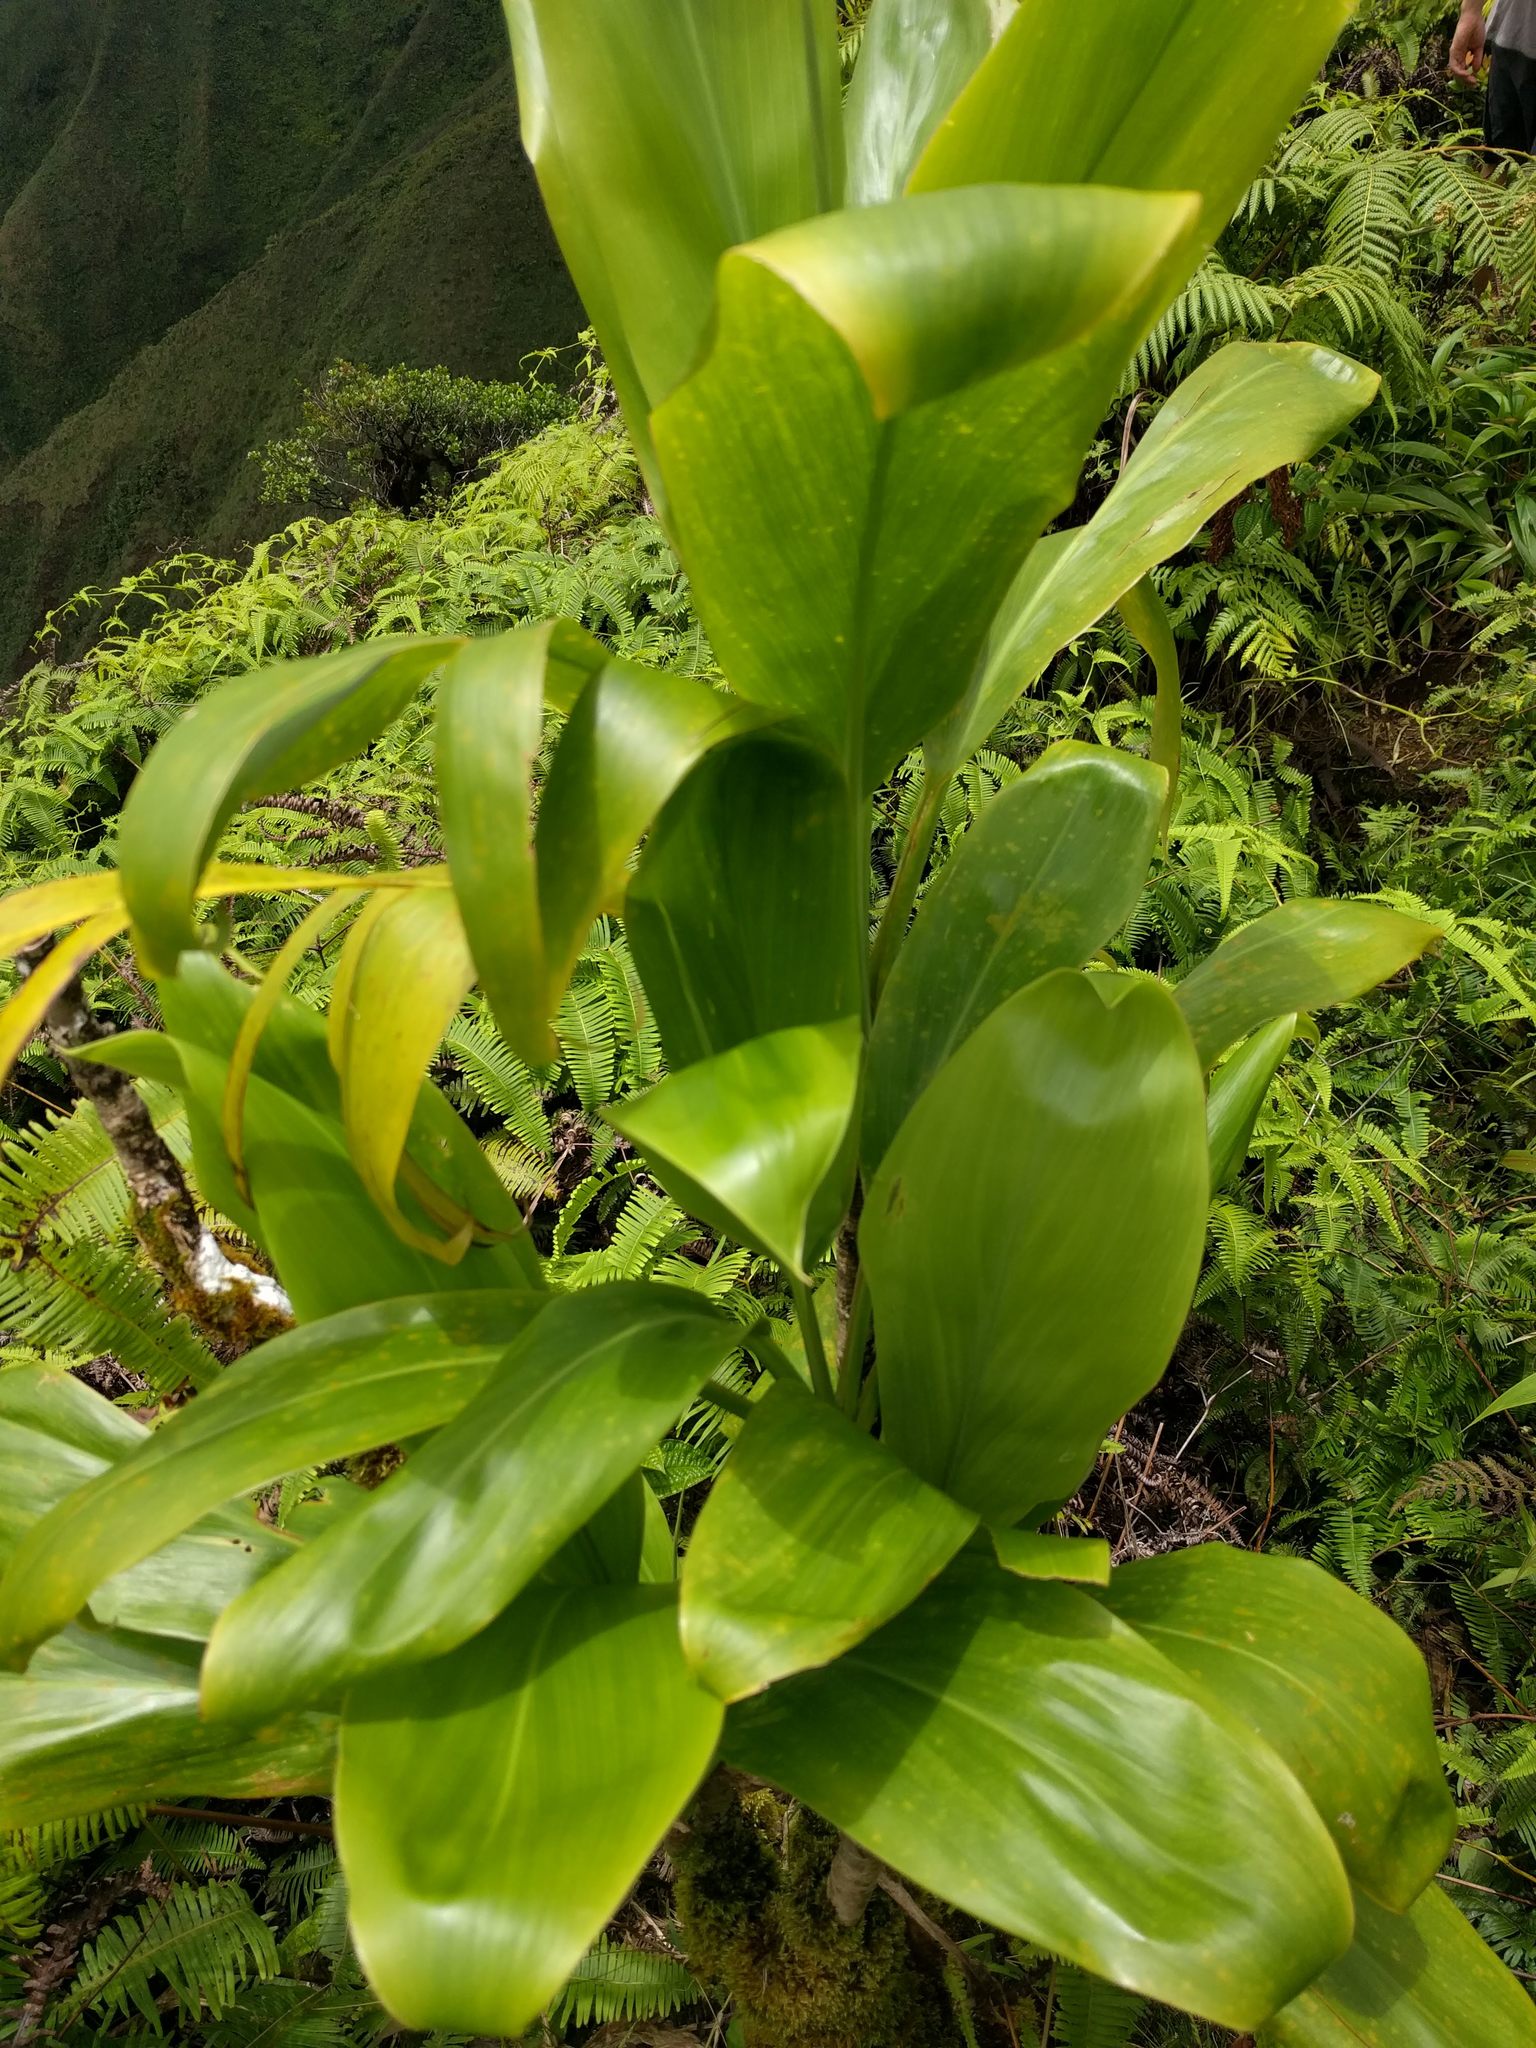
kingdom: Plantae
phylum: Tracheophyta
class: Liliopsida
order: Asparagales
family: Asparagaceae
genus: Cordyline
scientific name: Cordyline fruticosa
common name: Good-luck-plant
